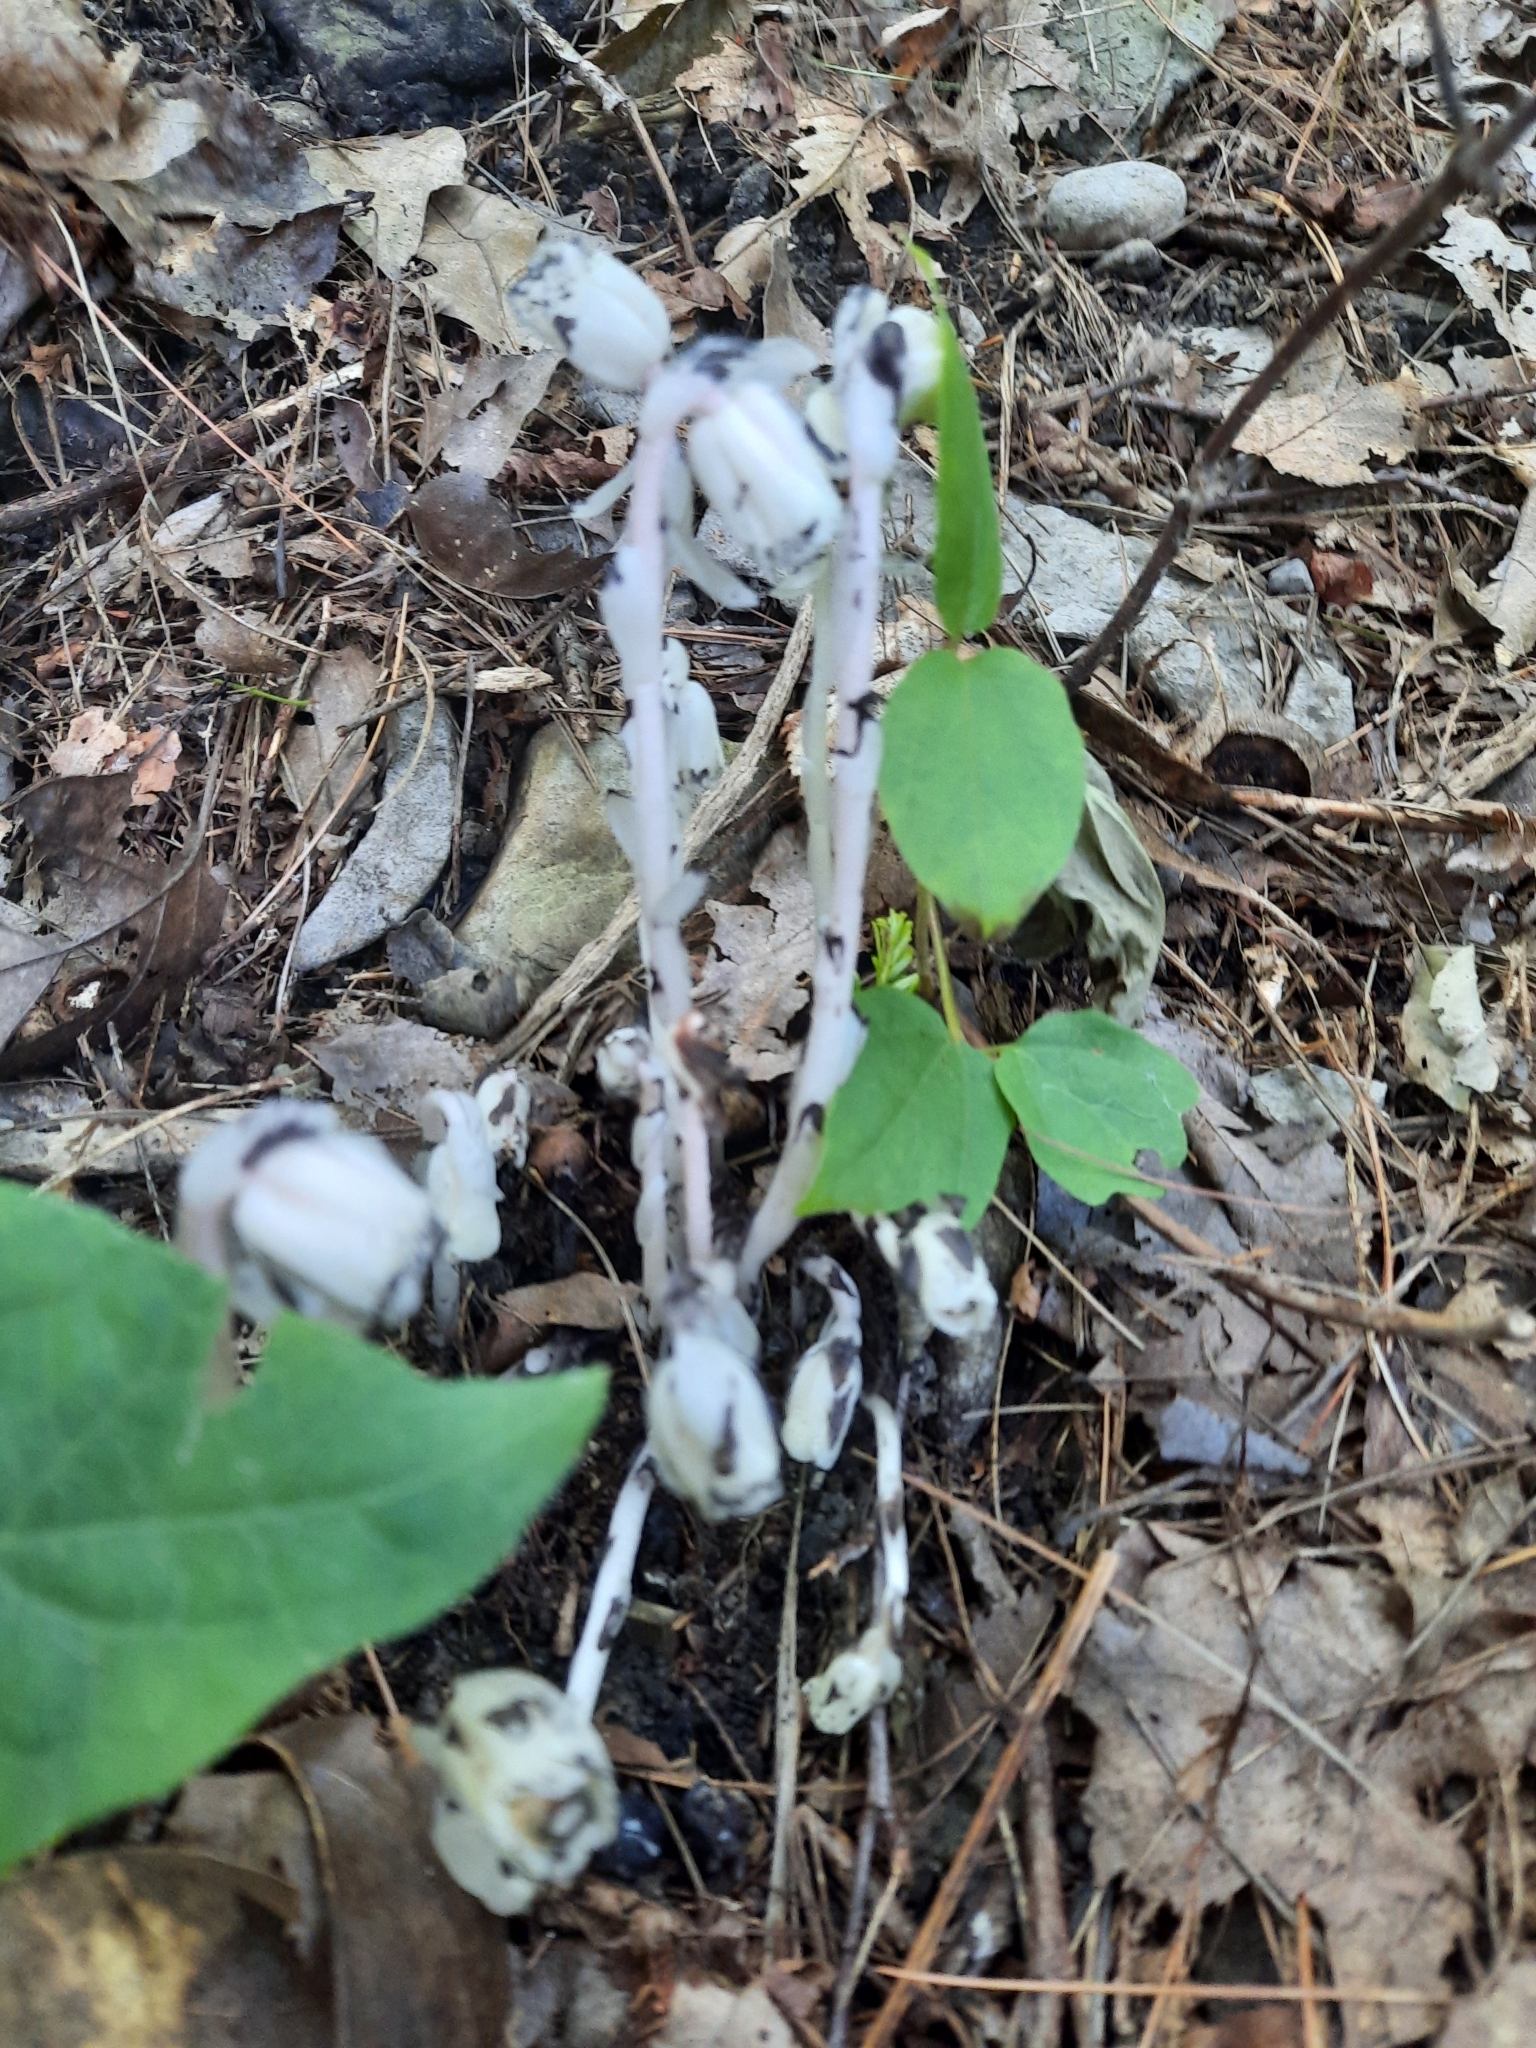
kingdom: Plantae
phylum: Tracheophyta
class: Magnoliopsida
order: Ericales
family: Ericaceae
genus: Monotropa
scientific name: Monotropa uniflora
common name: Convulsion root
